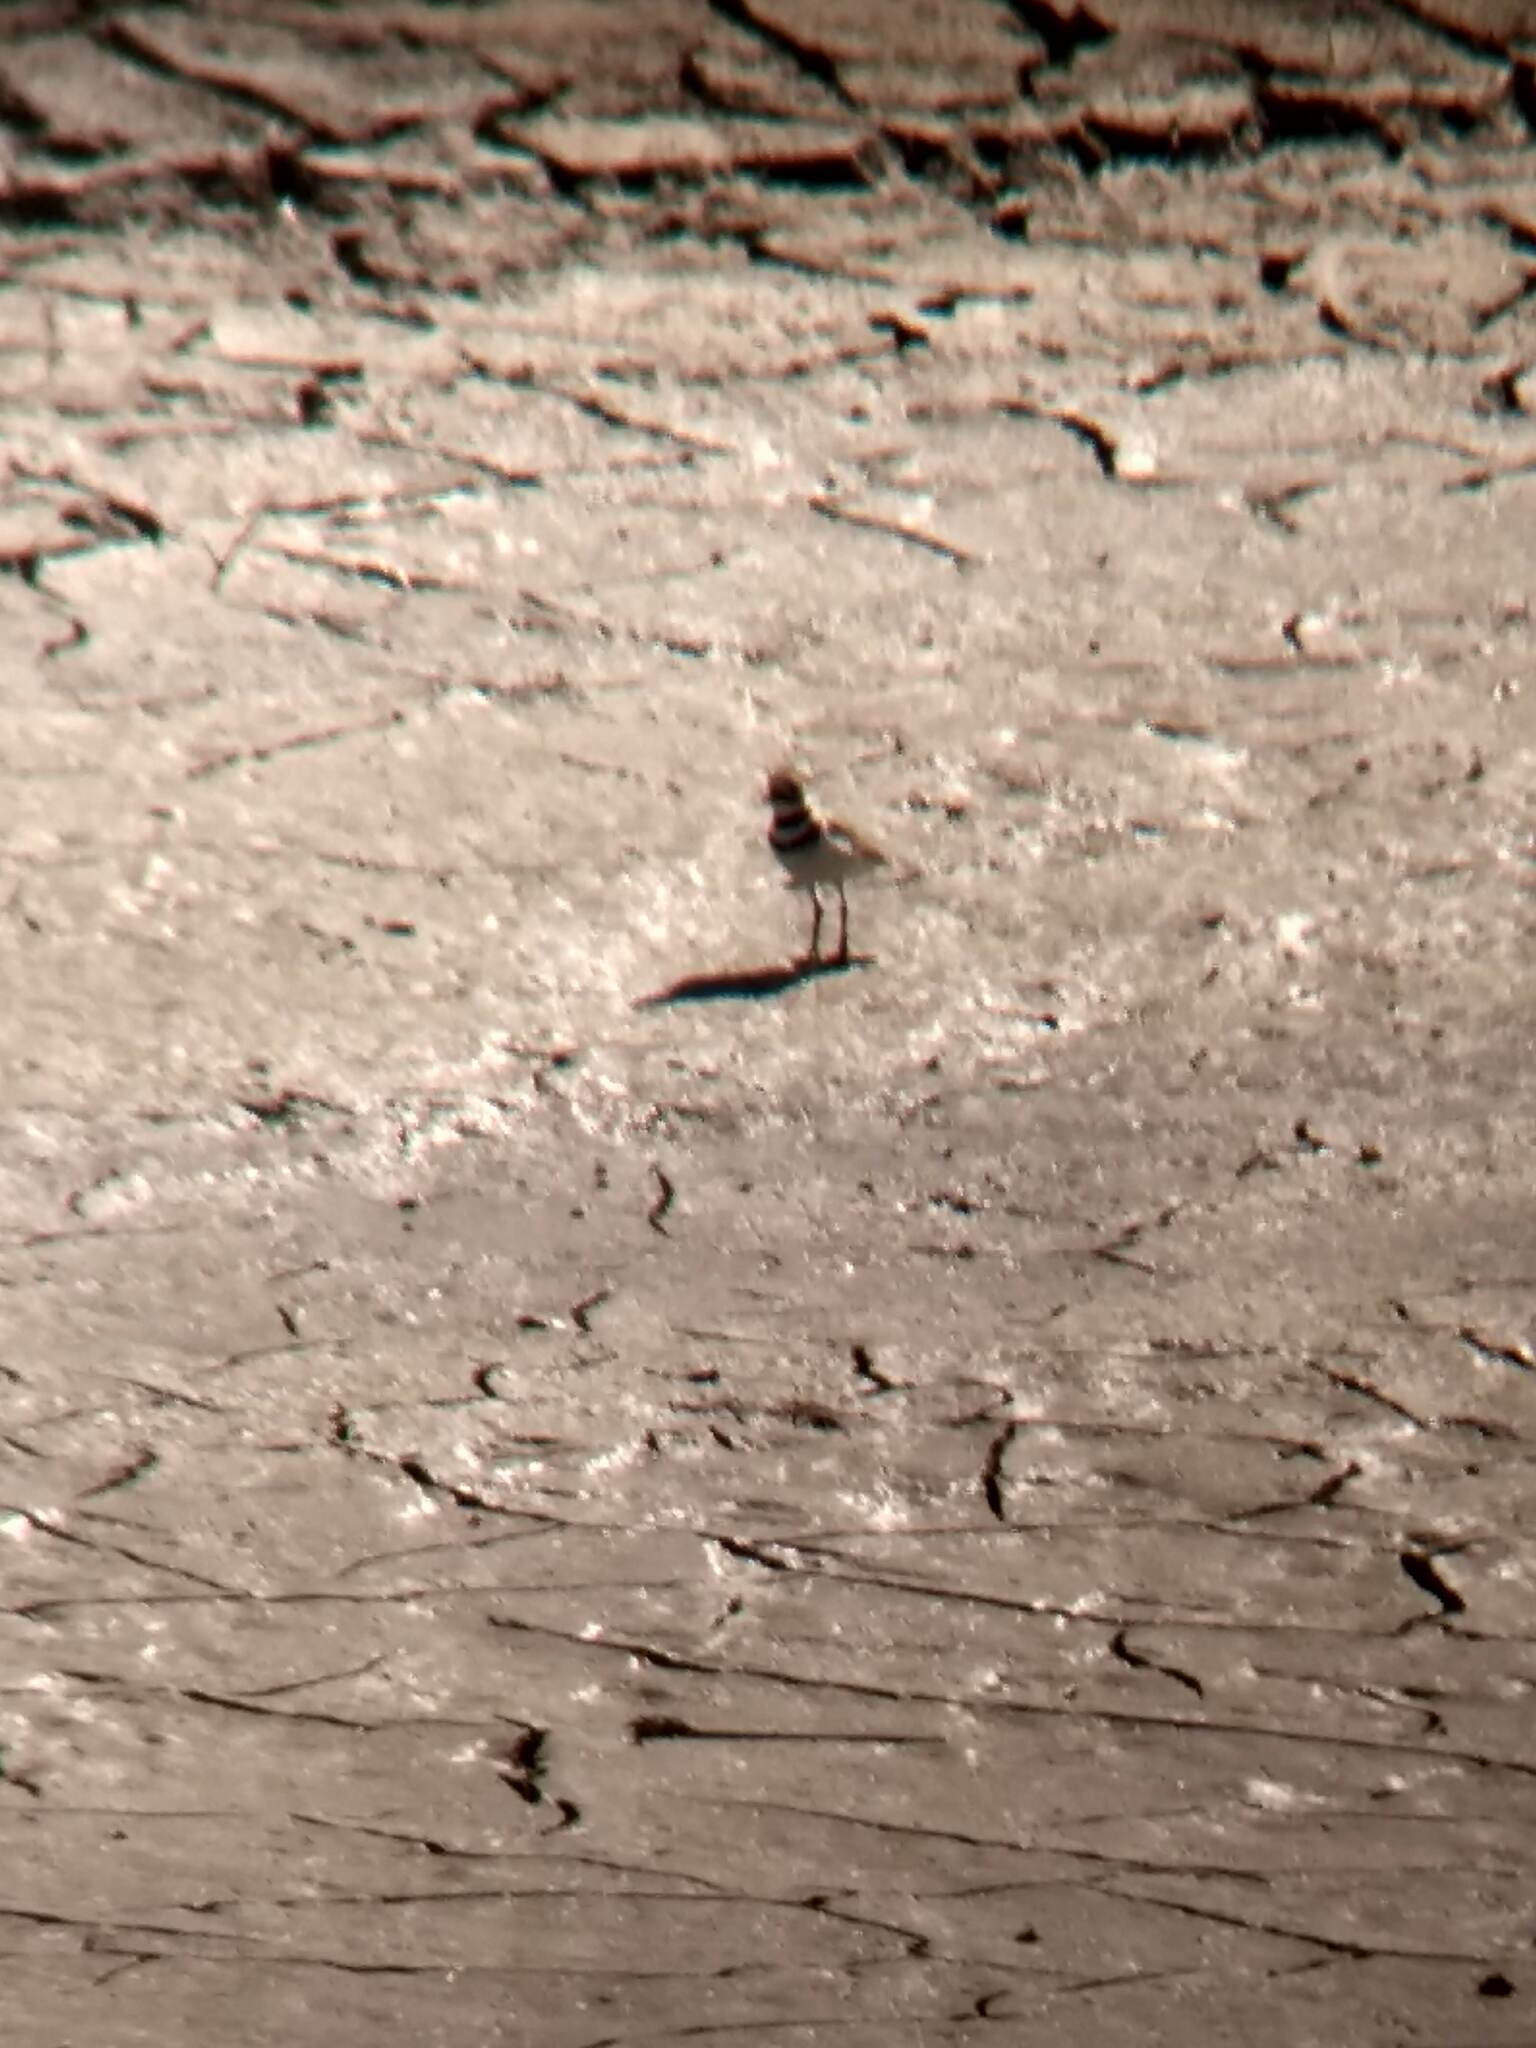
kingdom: Animalia
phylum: Chordata
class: Aves
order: Charadriiformes
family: Charadriidae
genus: Charadrius
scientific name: Charadrius vociferus
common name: Killdeer
